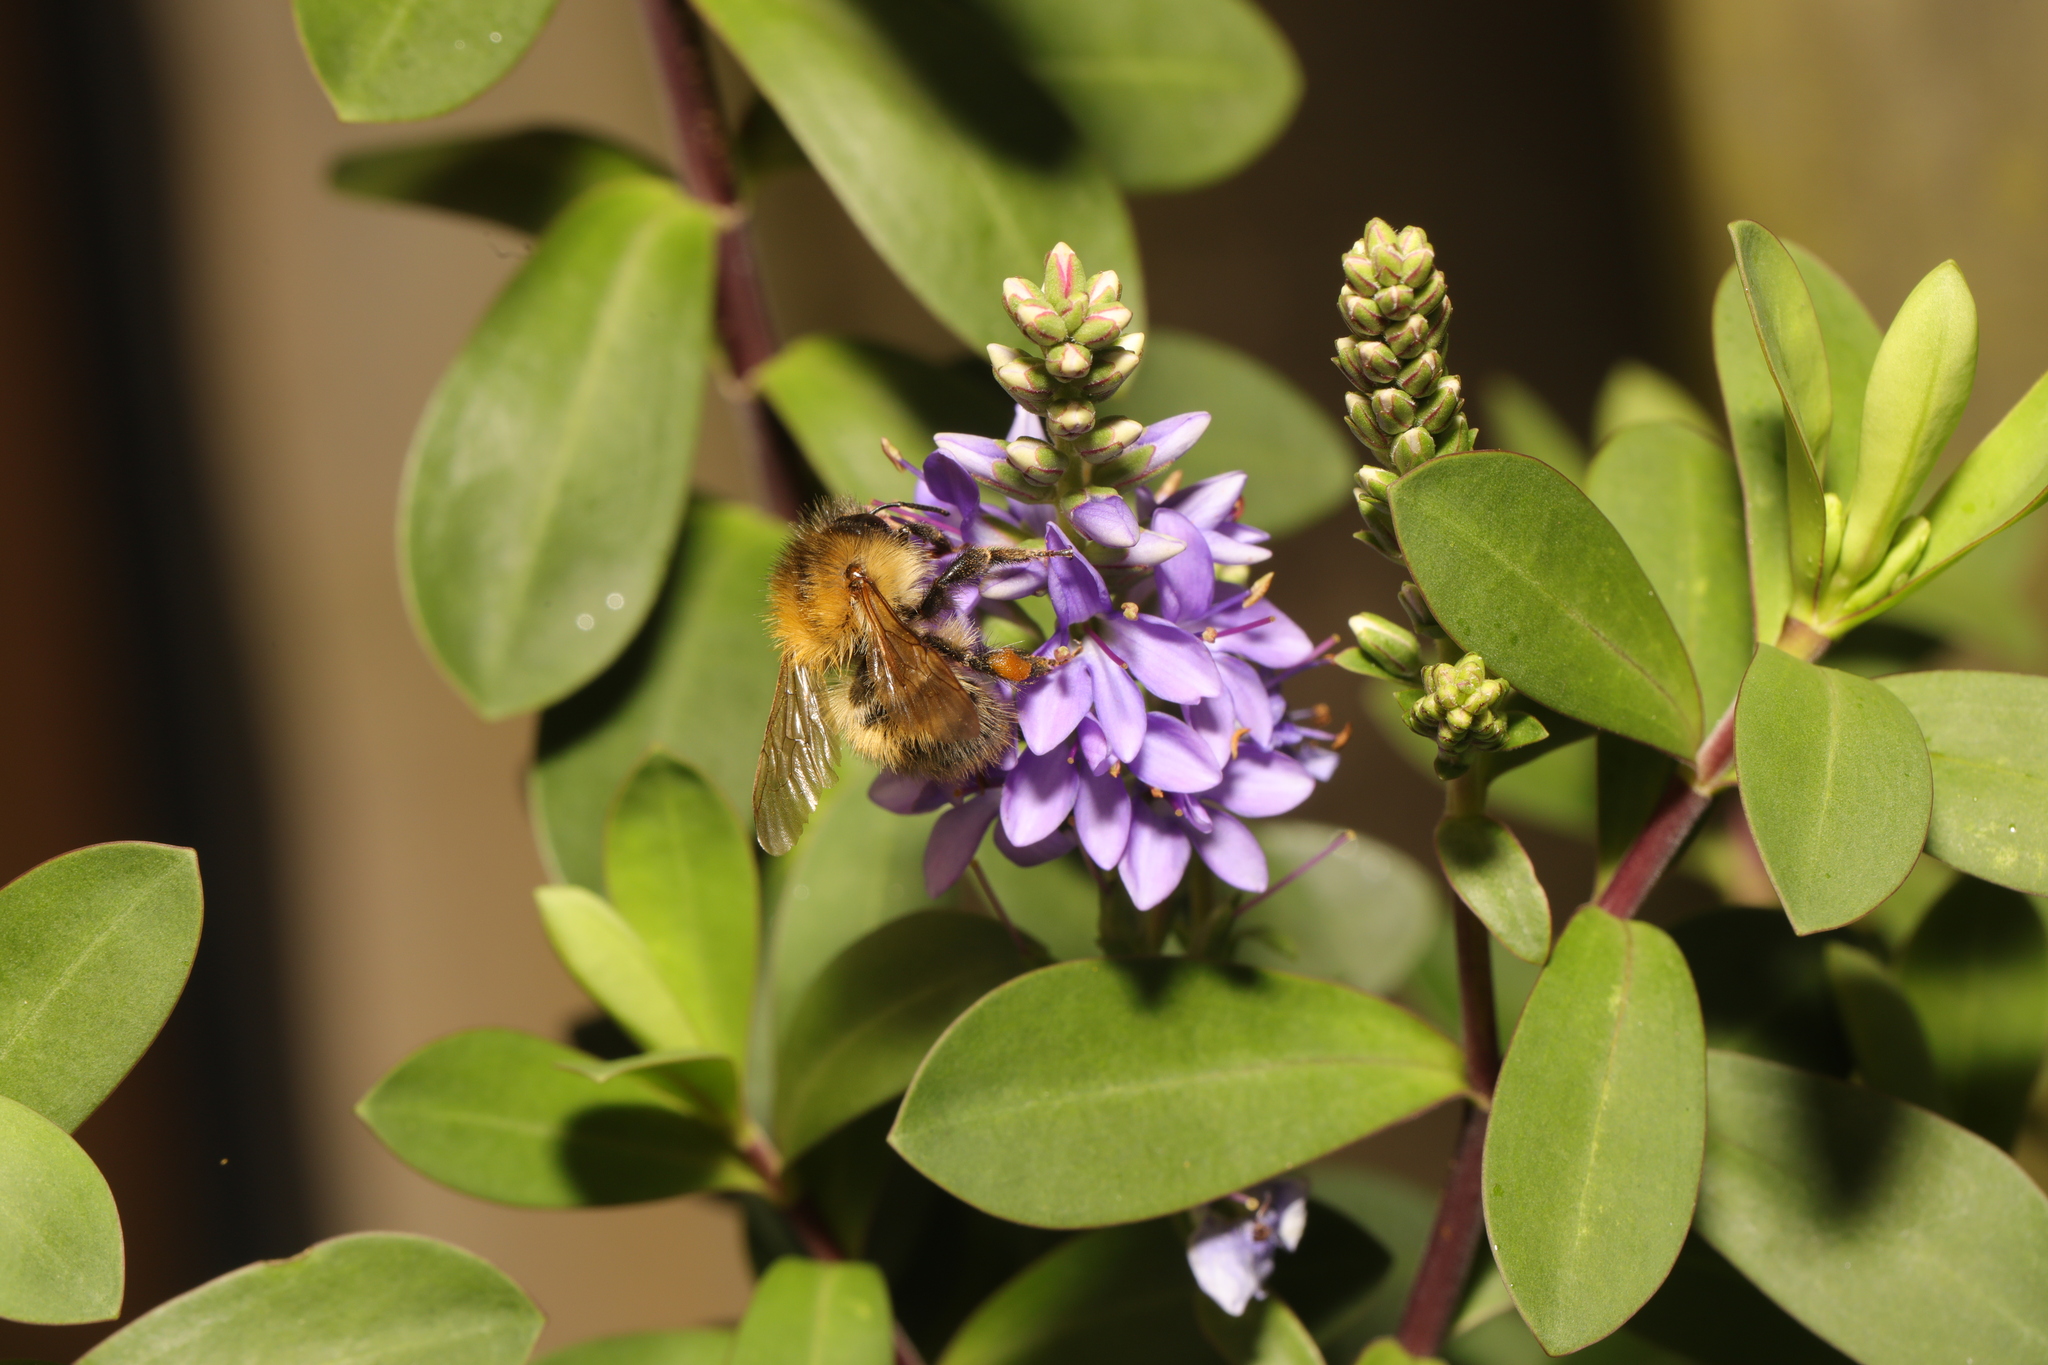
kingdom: Animalia
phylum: Arthropoda
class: Insecta
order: Hymenoptera
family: Apidae
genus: Bombus
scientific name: Bombus pascuorum
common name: Common carder bee
